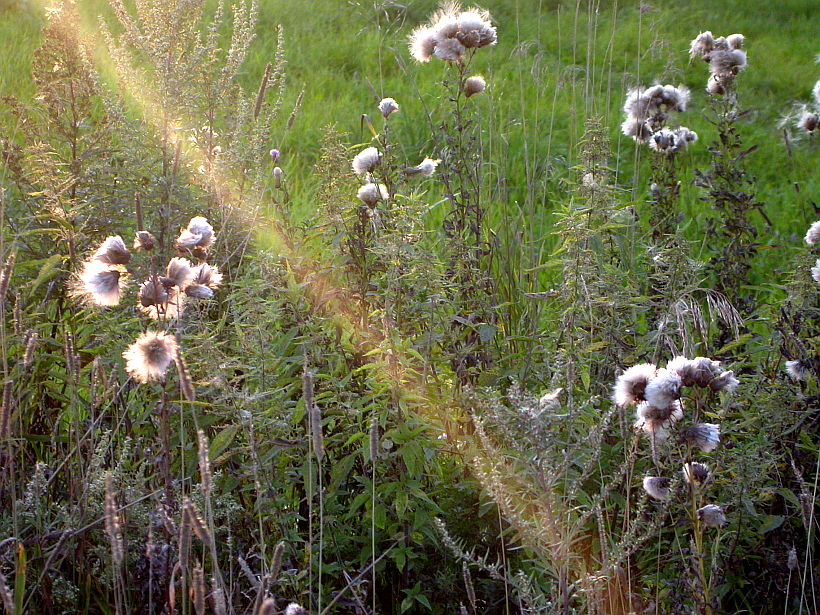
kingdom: Plantae
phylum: Tracheophyta
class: Magnoliopsida
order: Asterales
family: Asteraceae
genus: Cirsium
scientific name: Cirsium arvense
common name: Creeping thistle
